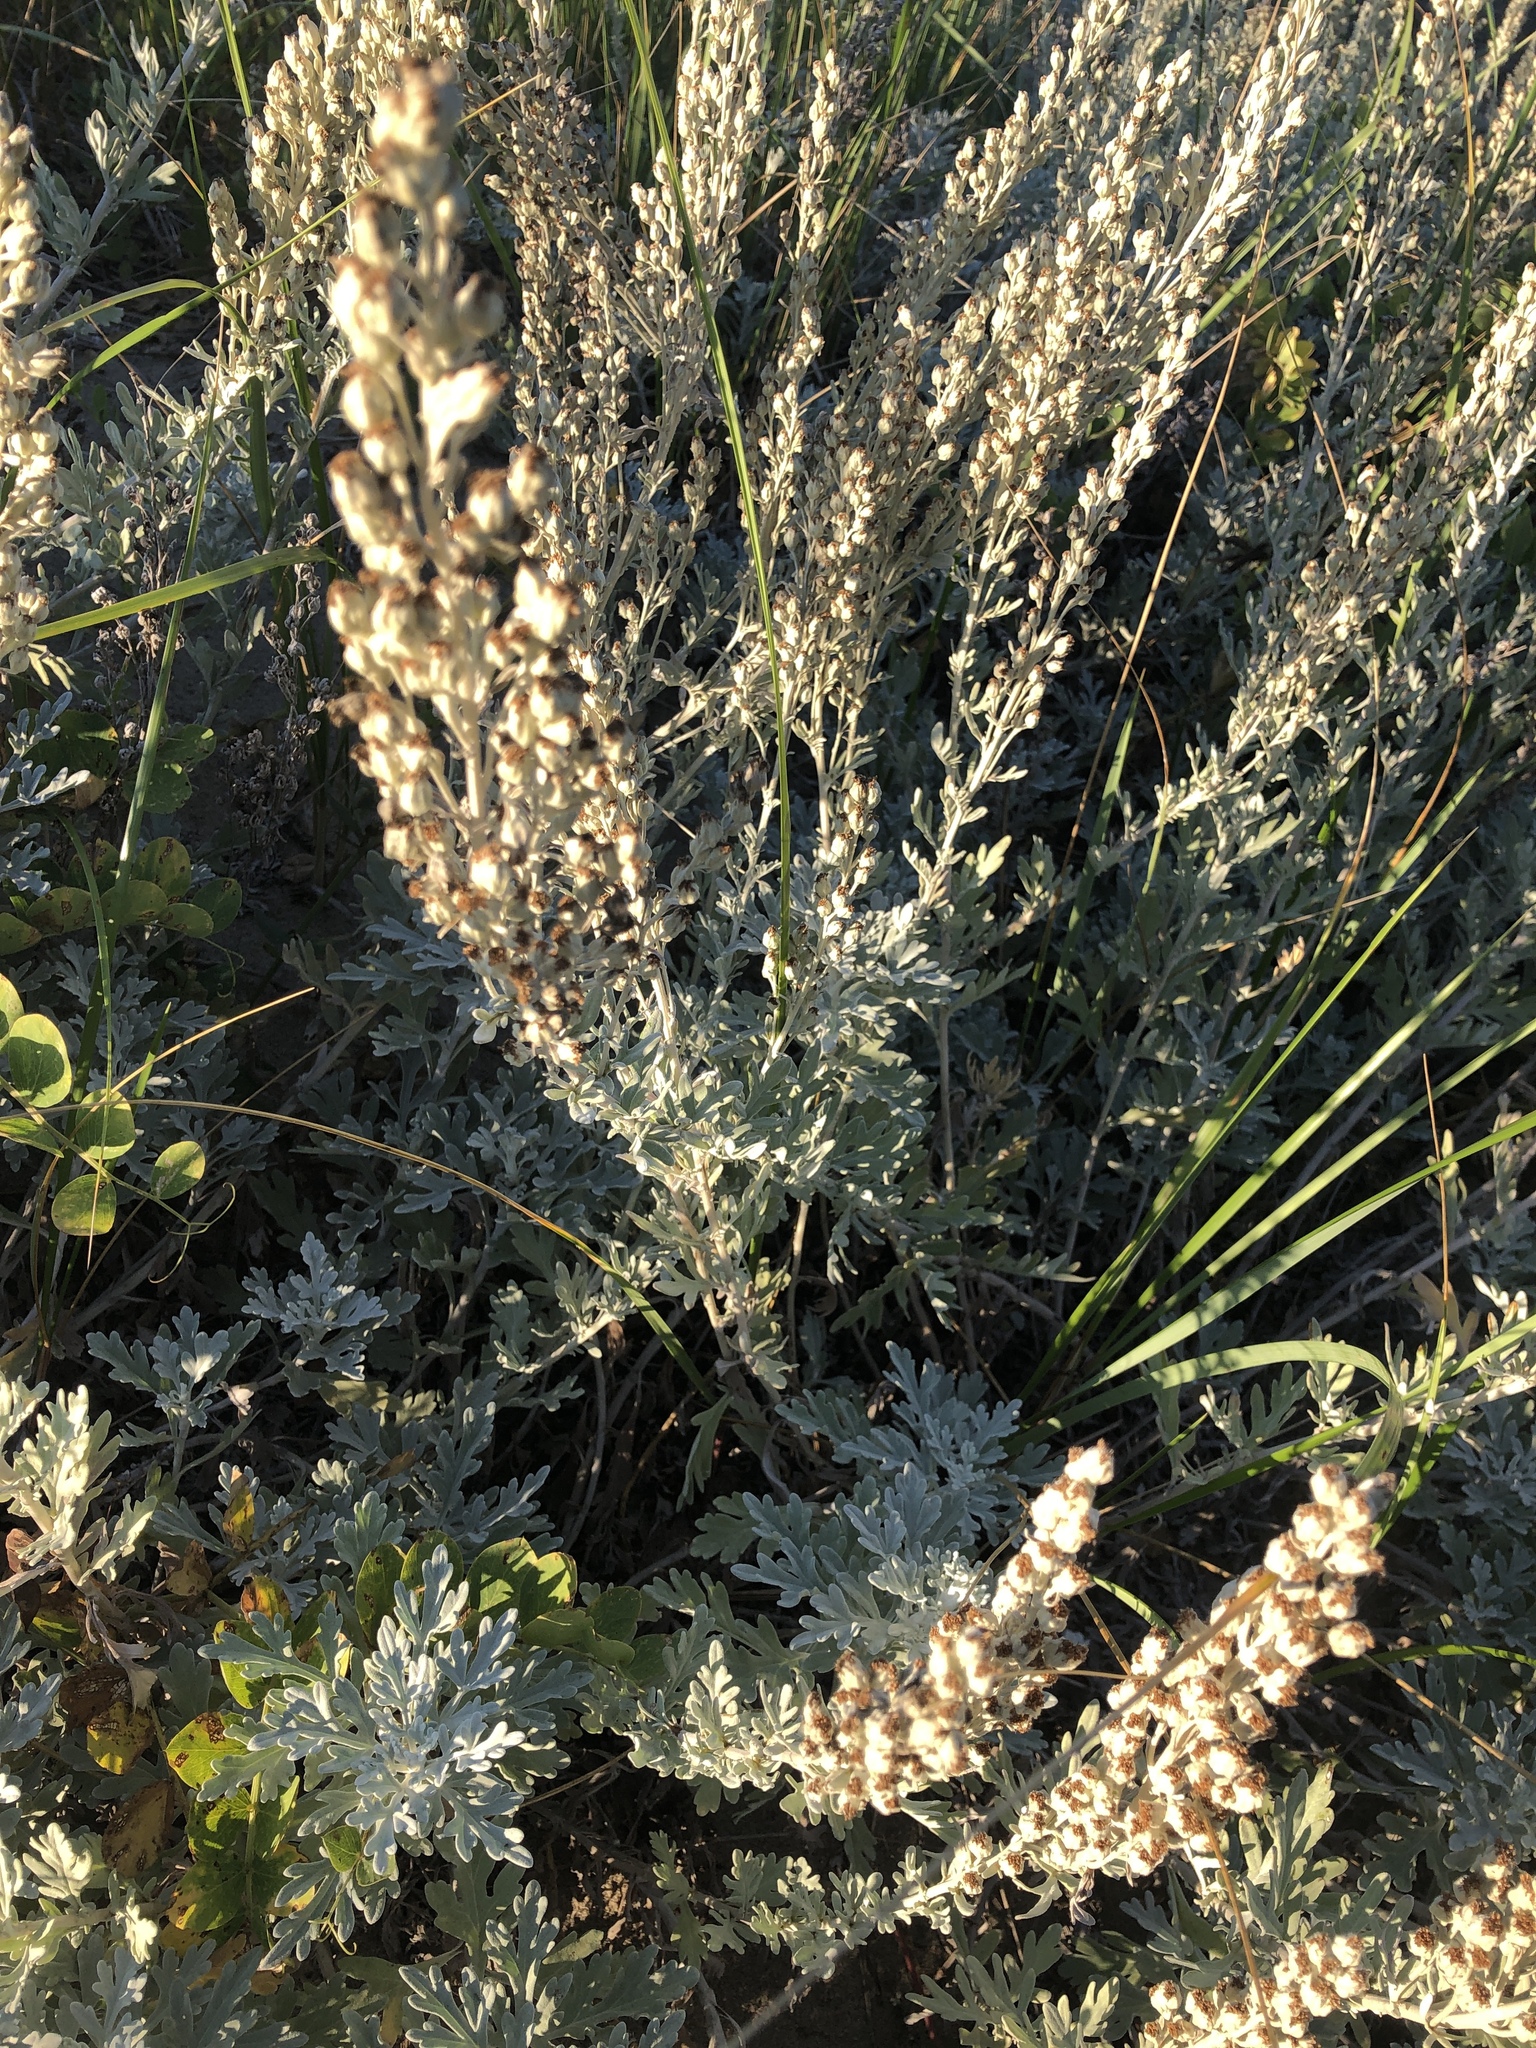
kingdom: Plantae
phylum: Tracheophyta
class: Magnoliopsida
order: Asterales
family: Asteraceae
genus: Artemisia
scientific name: Artemisia stelleriana
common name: Beach wormwood
